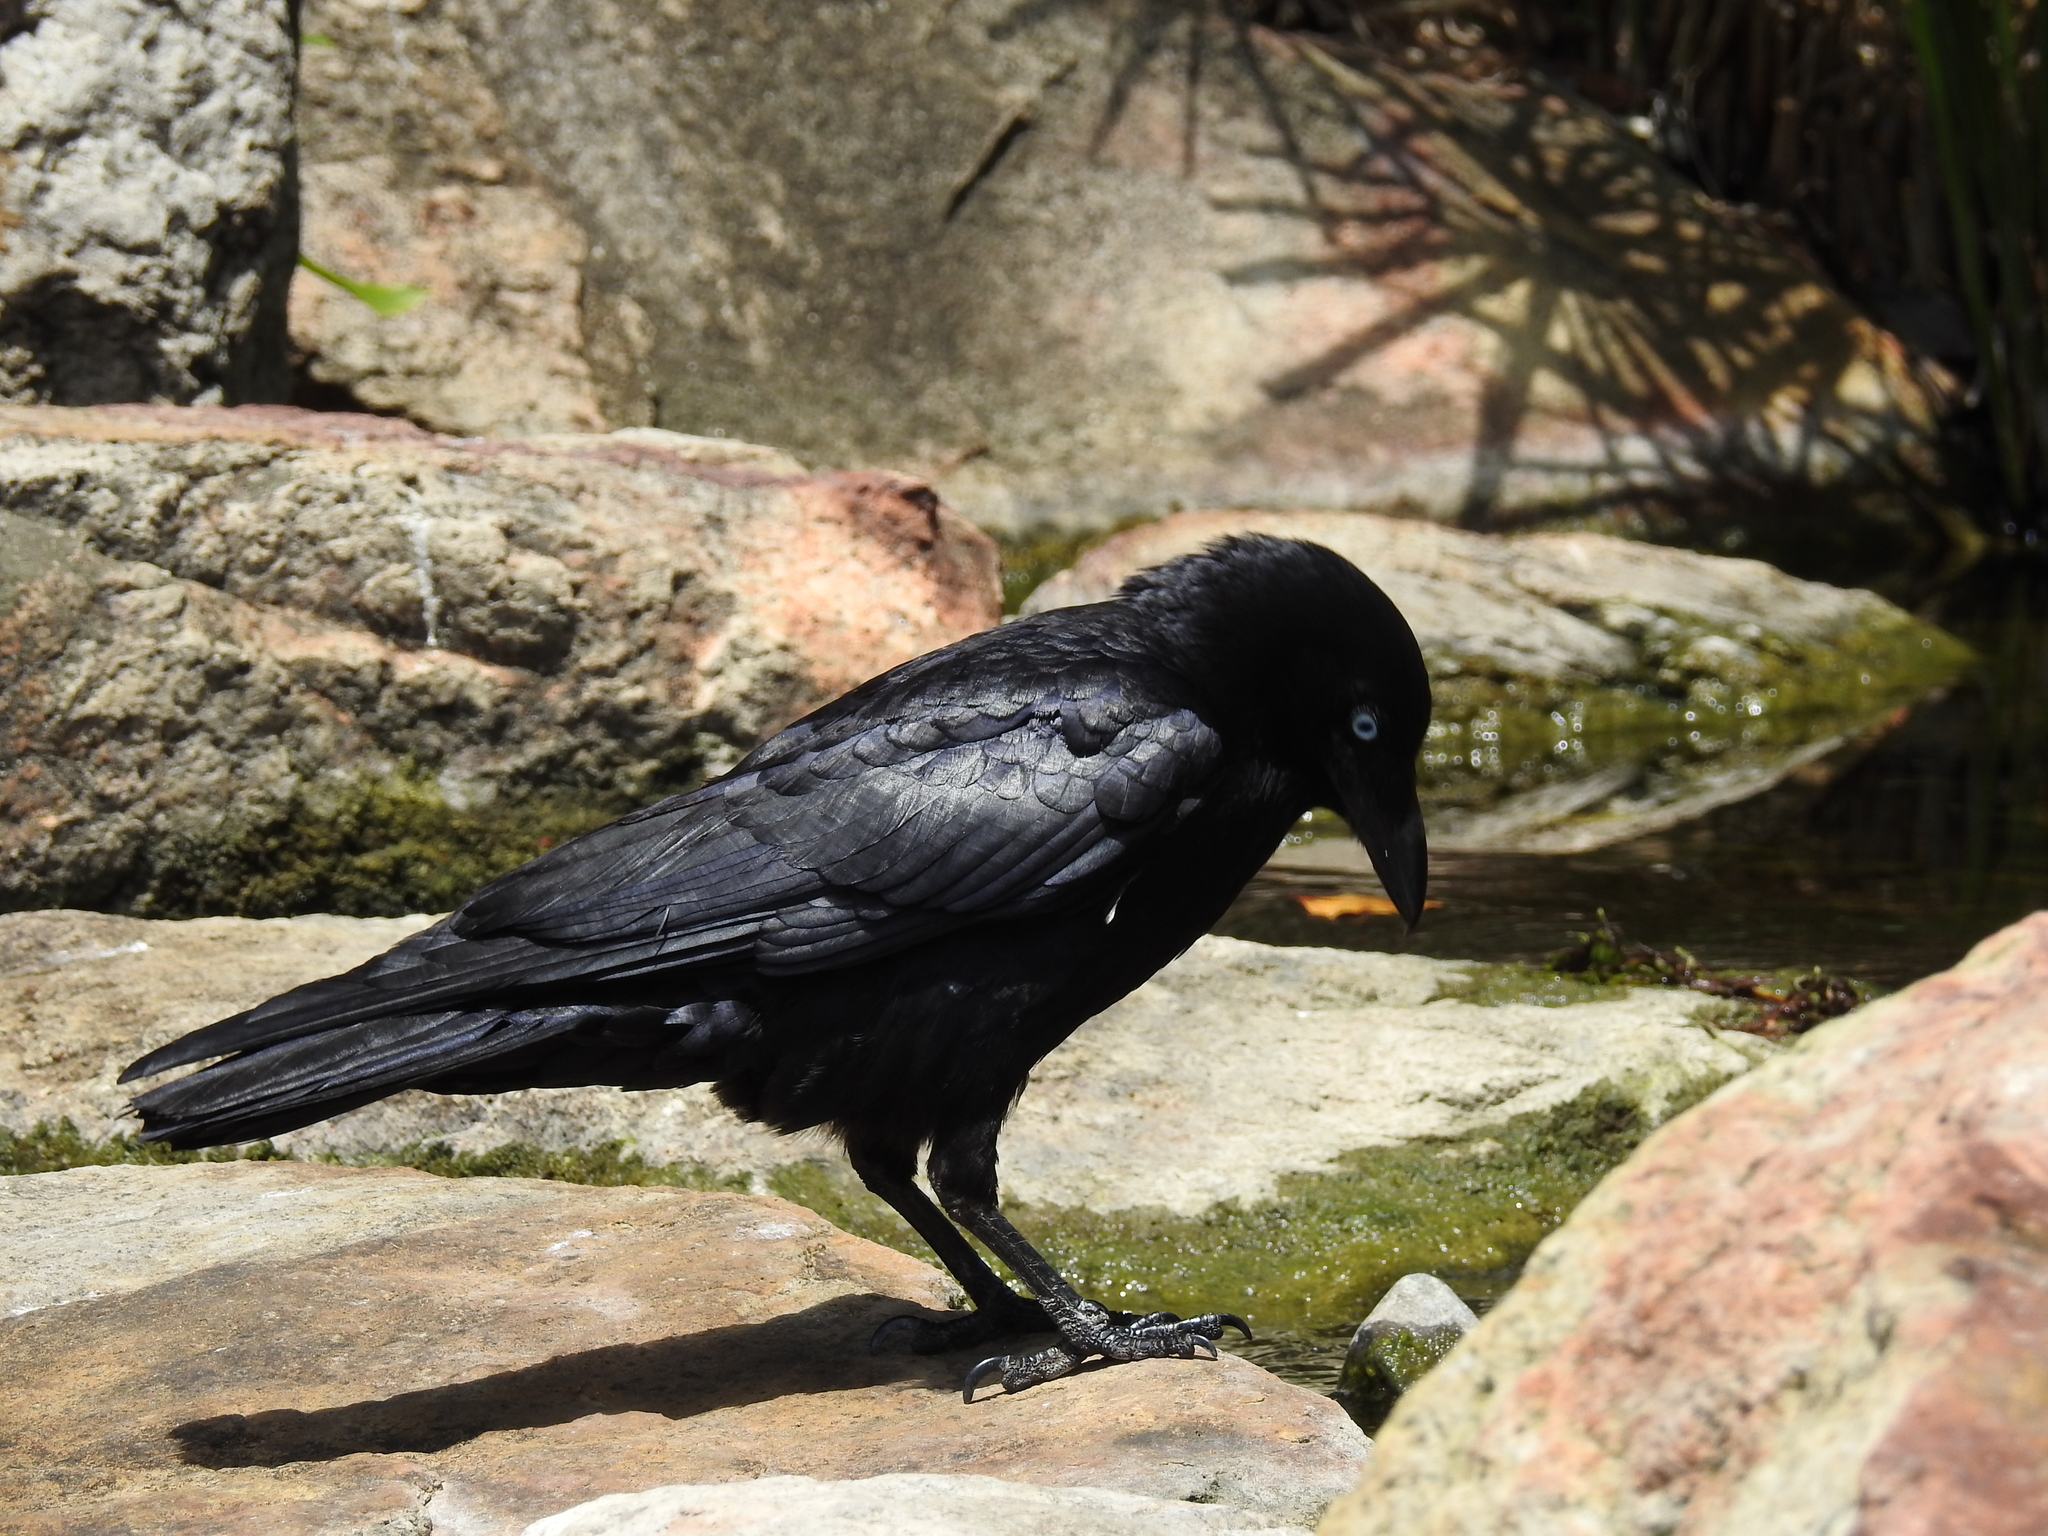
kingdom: Animalia
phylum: Chordata
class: Aves
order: Passeriformes
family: Corvidae
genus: Corvus
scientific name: Corvus orru
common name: Torresian crow
